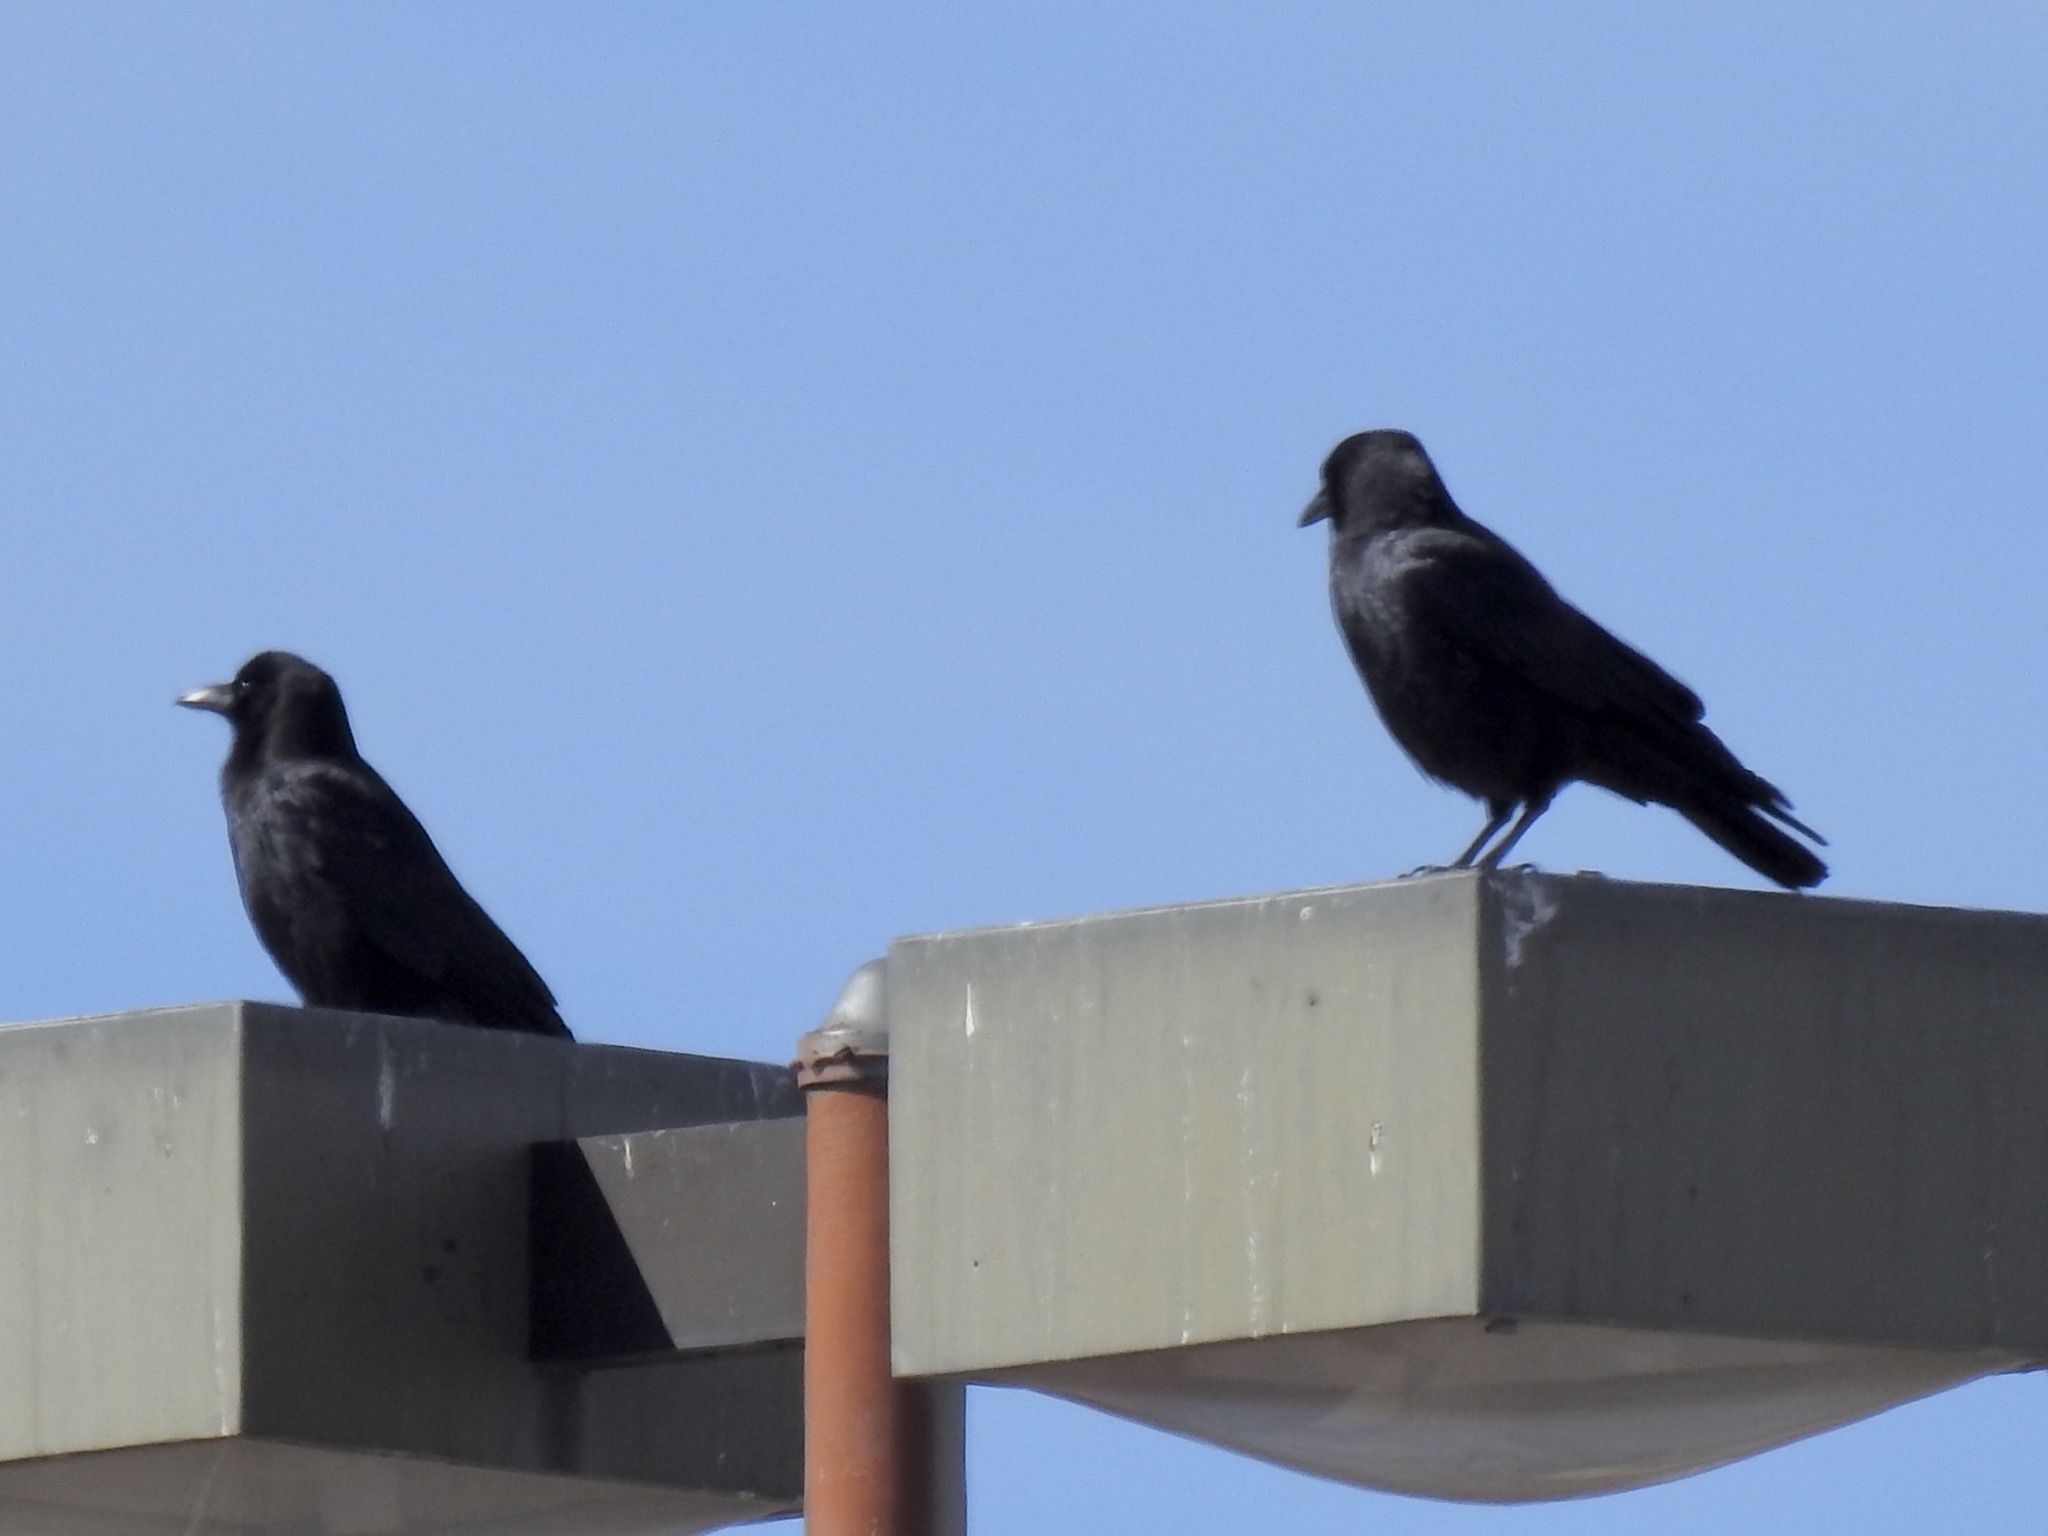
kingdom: Animalia
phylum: Chordata
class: Aves
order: Passeriformes
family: Corvidae
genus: Corvus
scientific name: Corvus brachyrhynchos
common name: American crow
